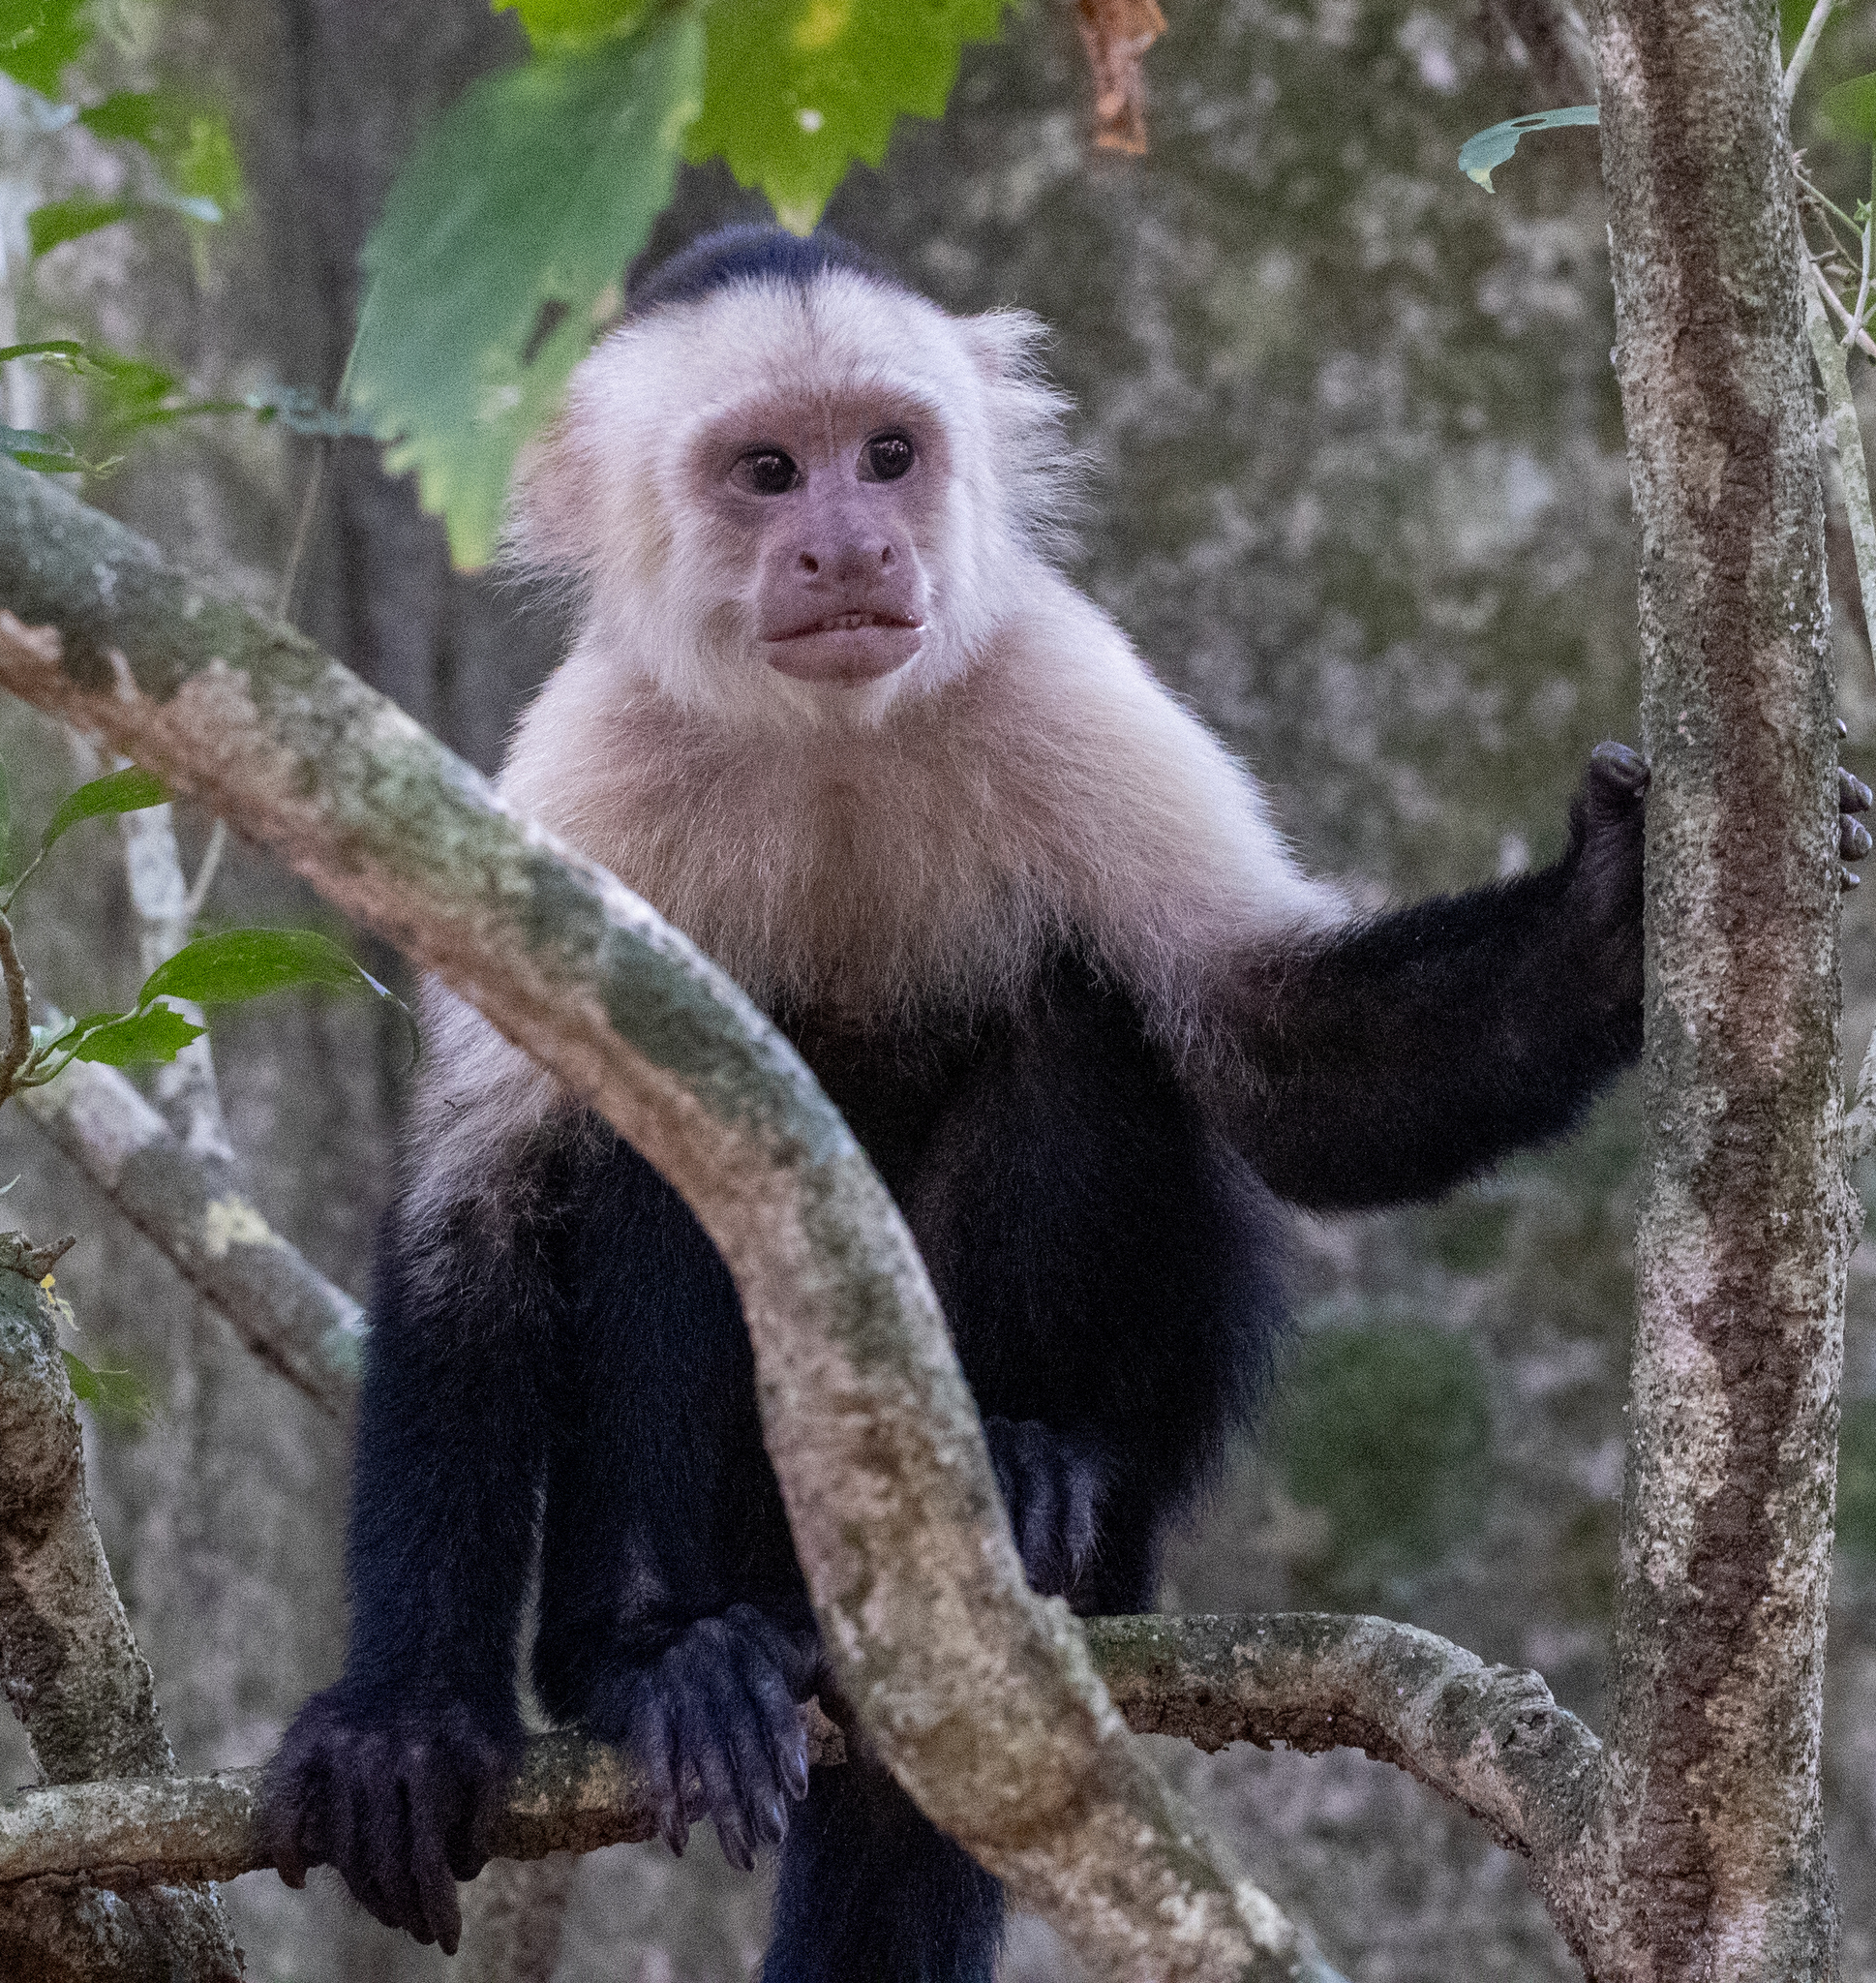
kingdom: Animalia
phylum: Chordata
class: Mammalia
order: Primates
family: Cebidae
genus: Cebus
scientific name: Cebus imitator
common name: Panamanian white-faced capuchin
